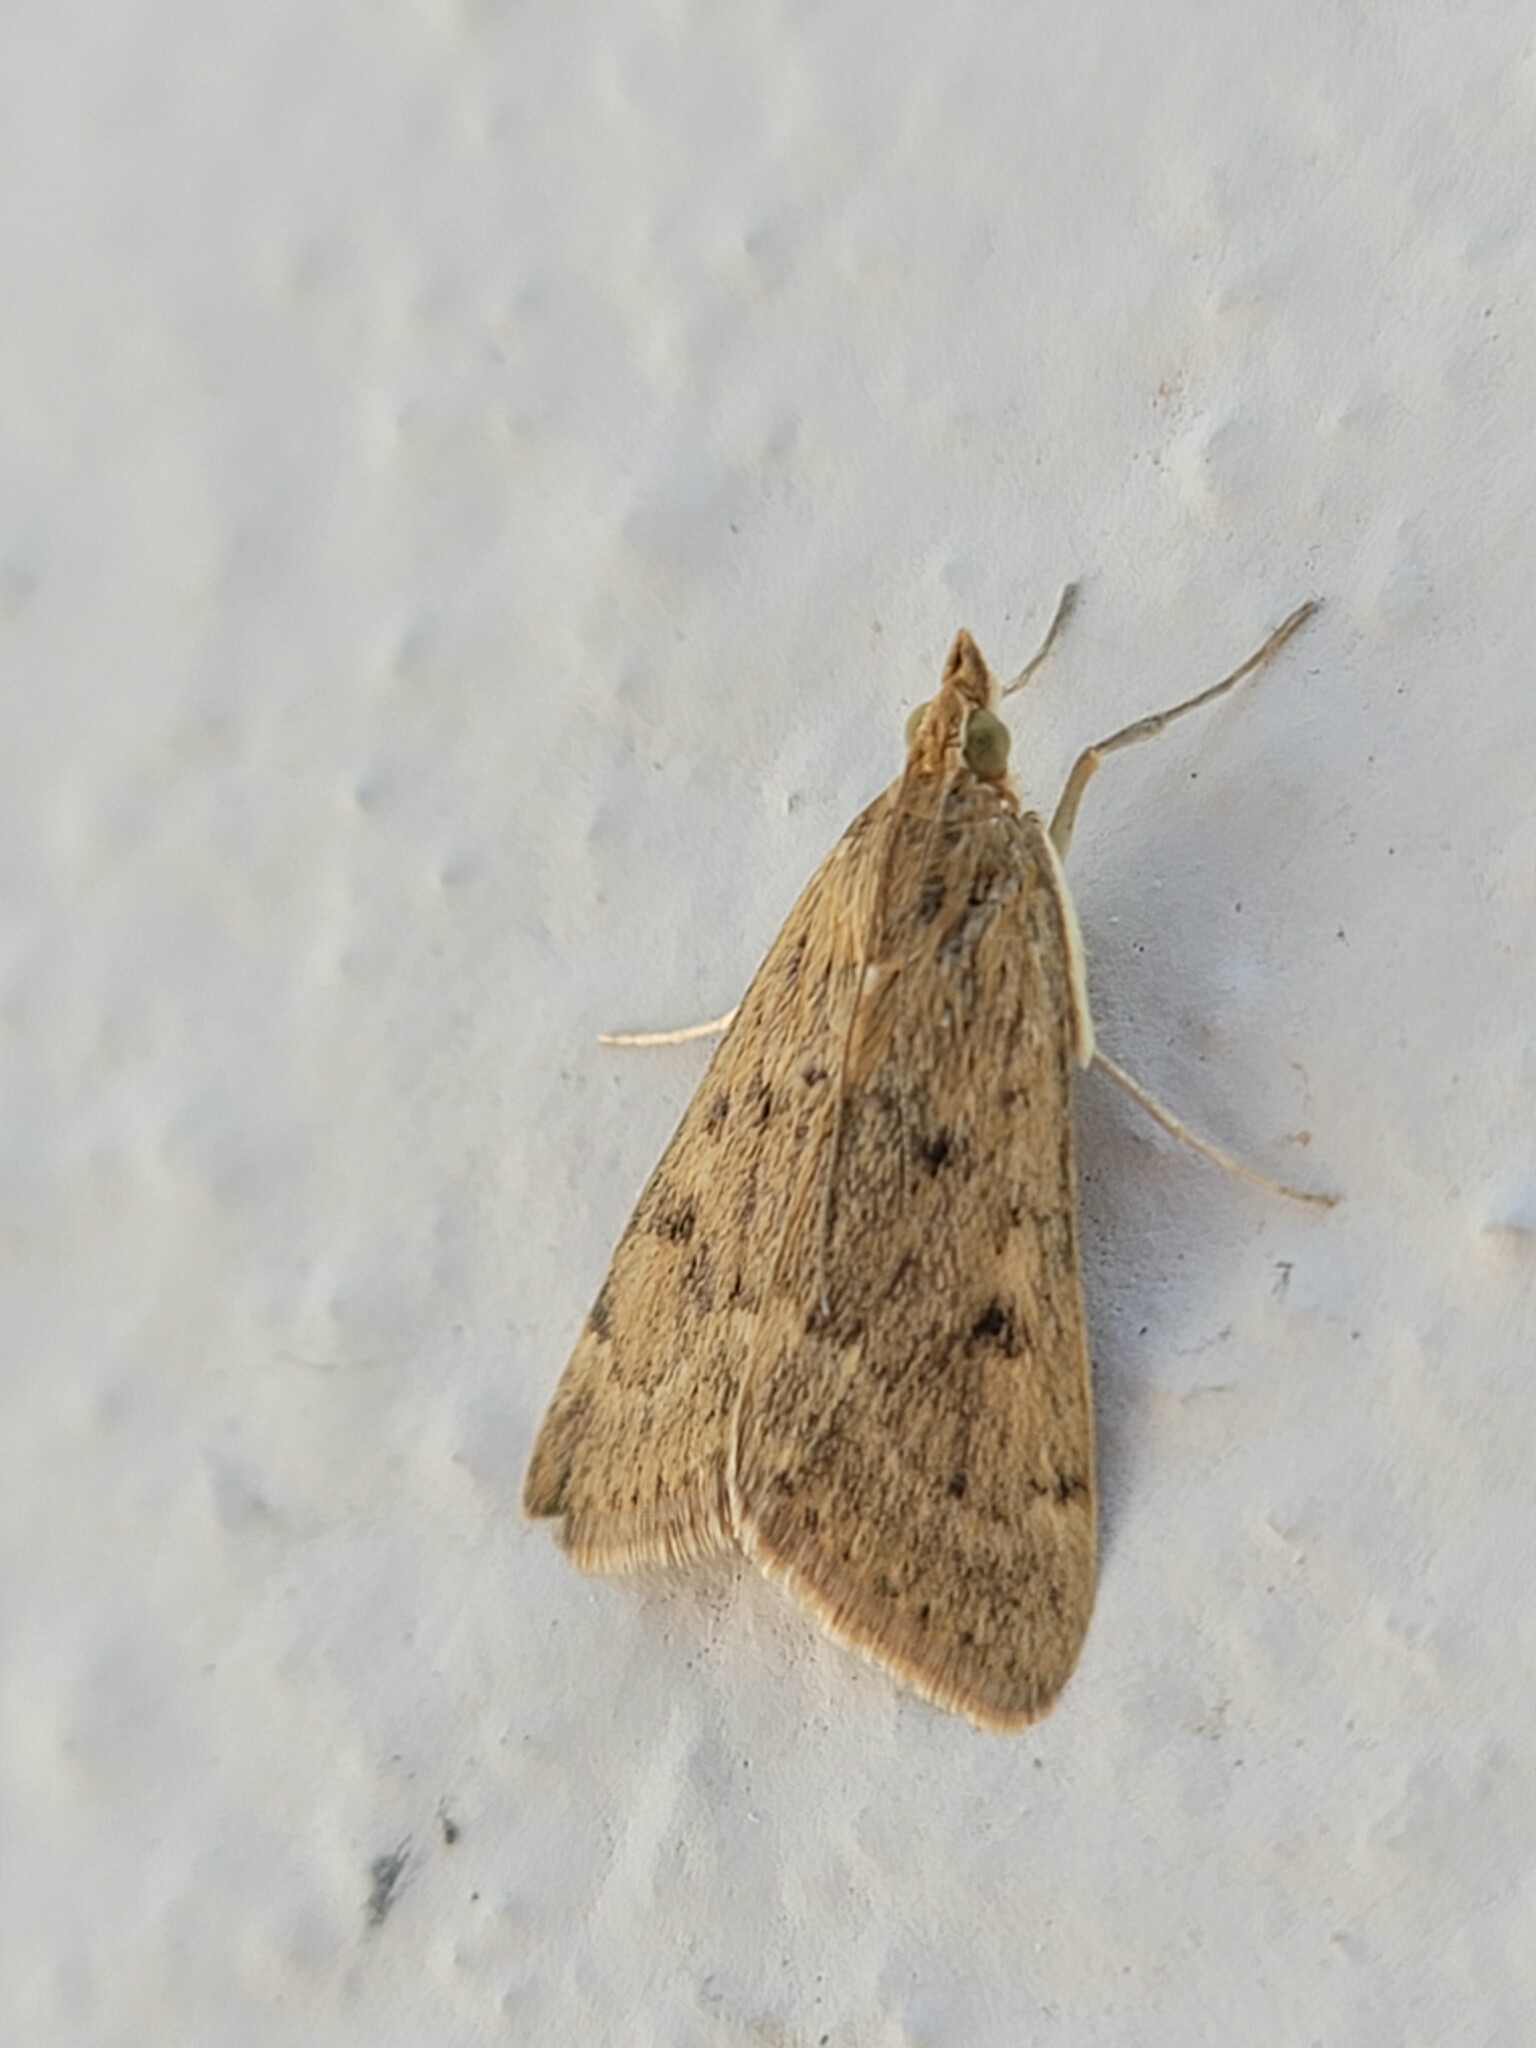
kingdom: Animalia
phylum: Arthropoda
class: Insecta
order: Lepidoptera
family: Crambidae
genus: Achyra
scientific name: Achyra rantalis
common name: Garden webworm
